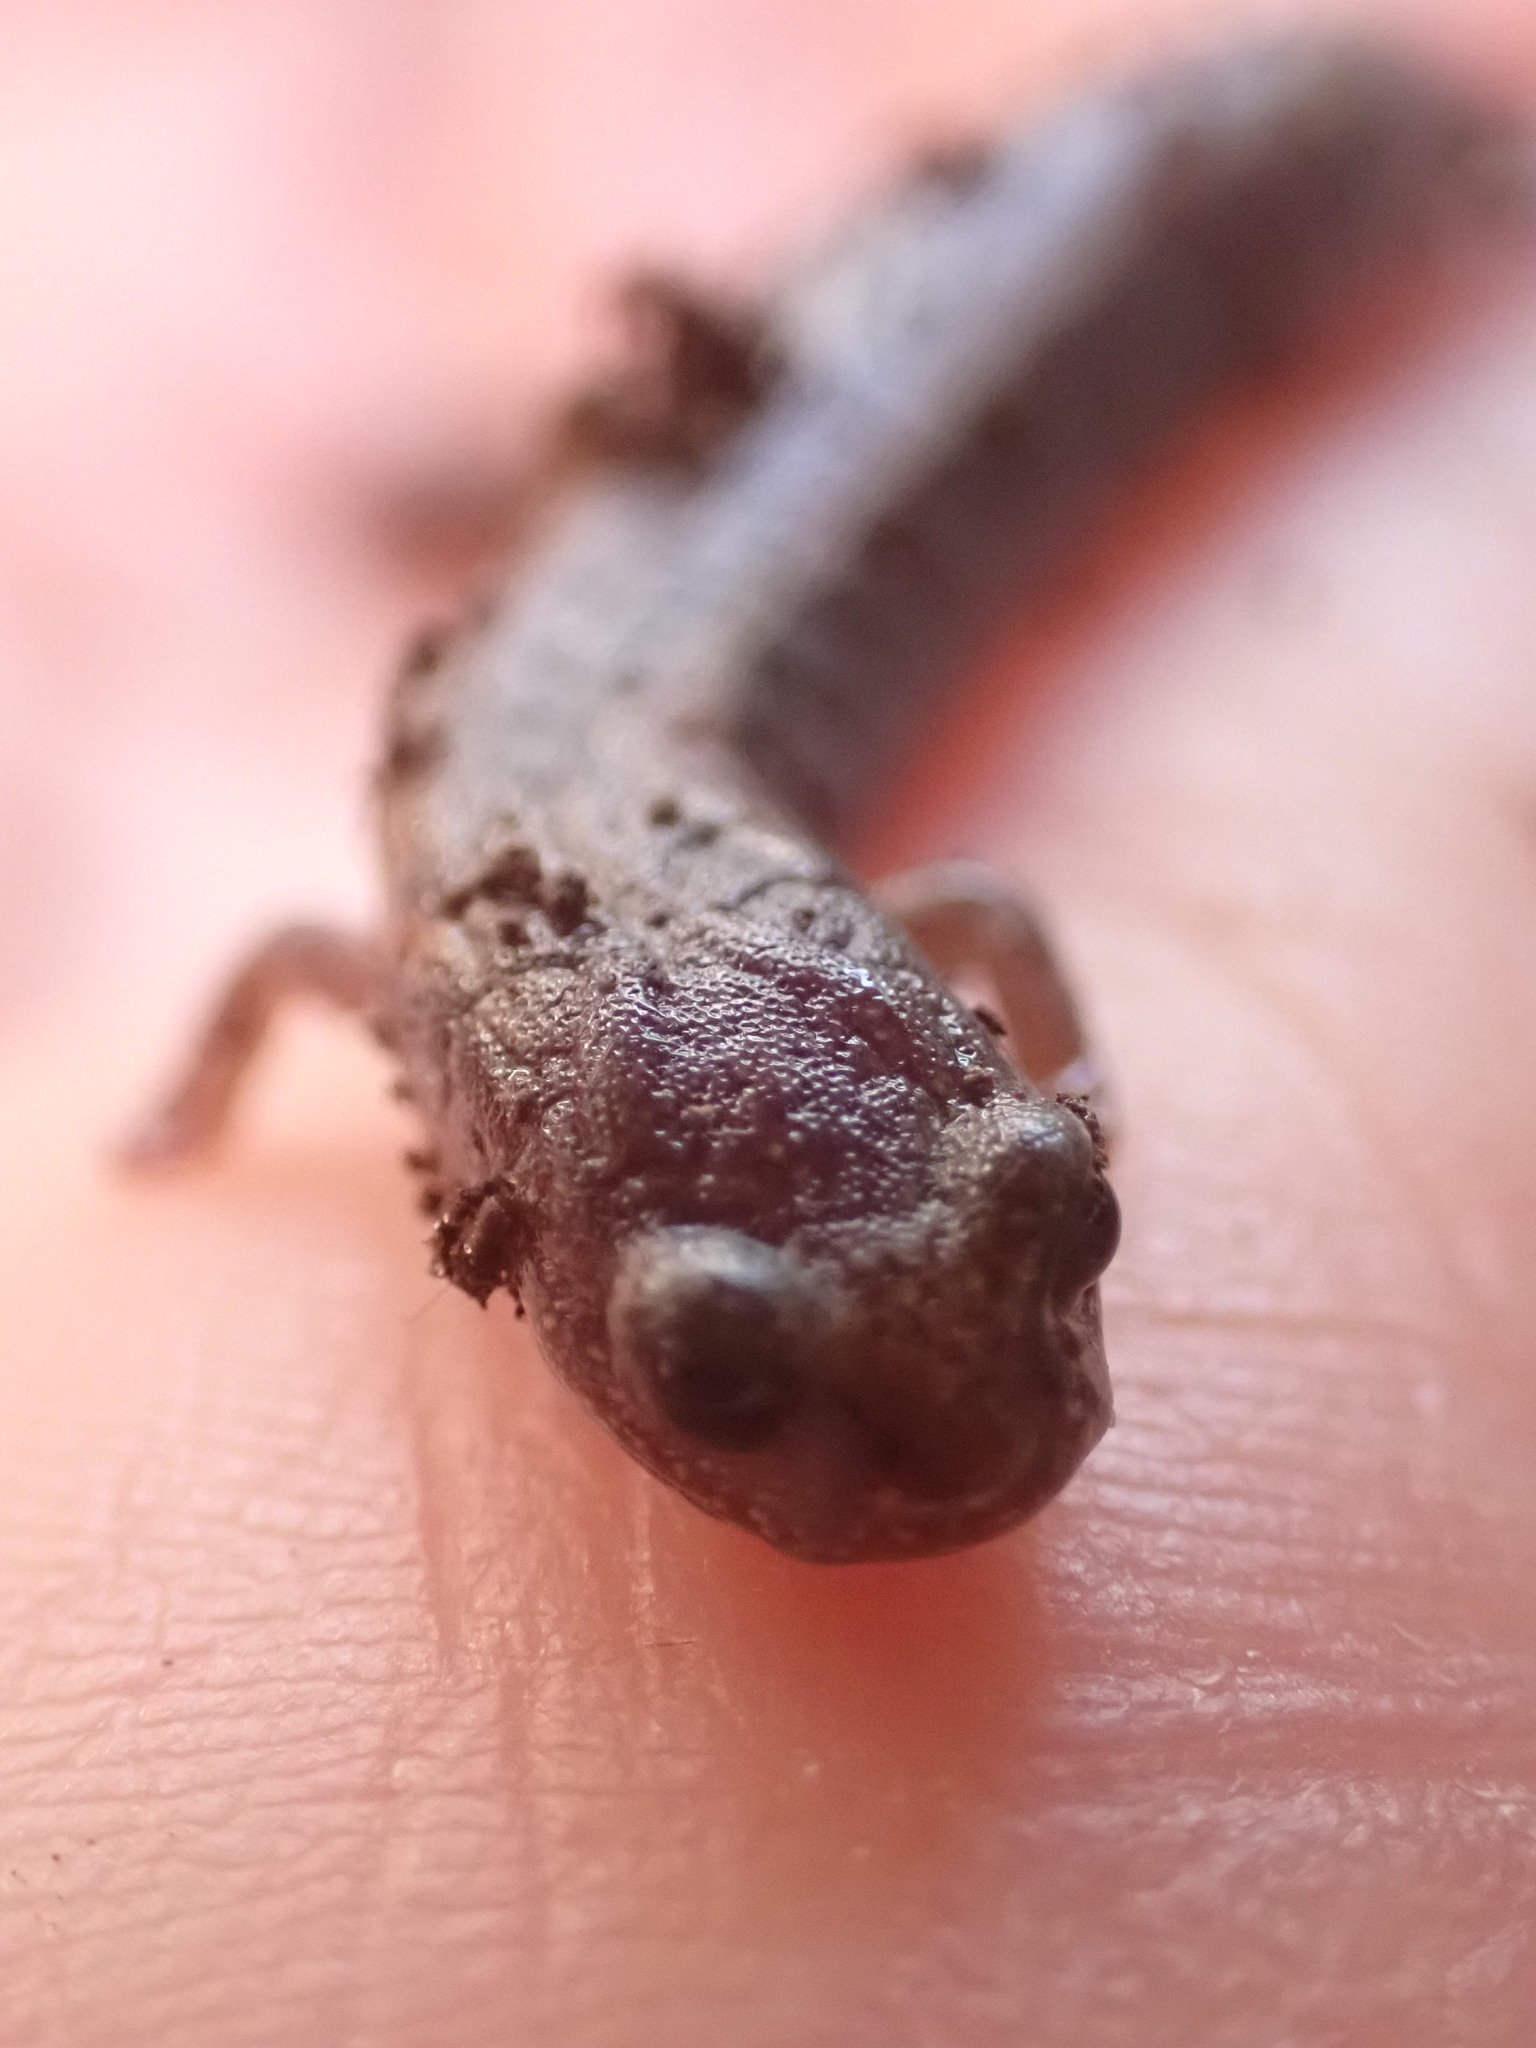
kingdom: Animalia
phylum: Chordata
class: Amphibia
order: Caudata
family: Plethodontidae
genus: Batrachoseps
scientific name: Batrachoseps attenuatus
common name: California slender salamander
